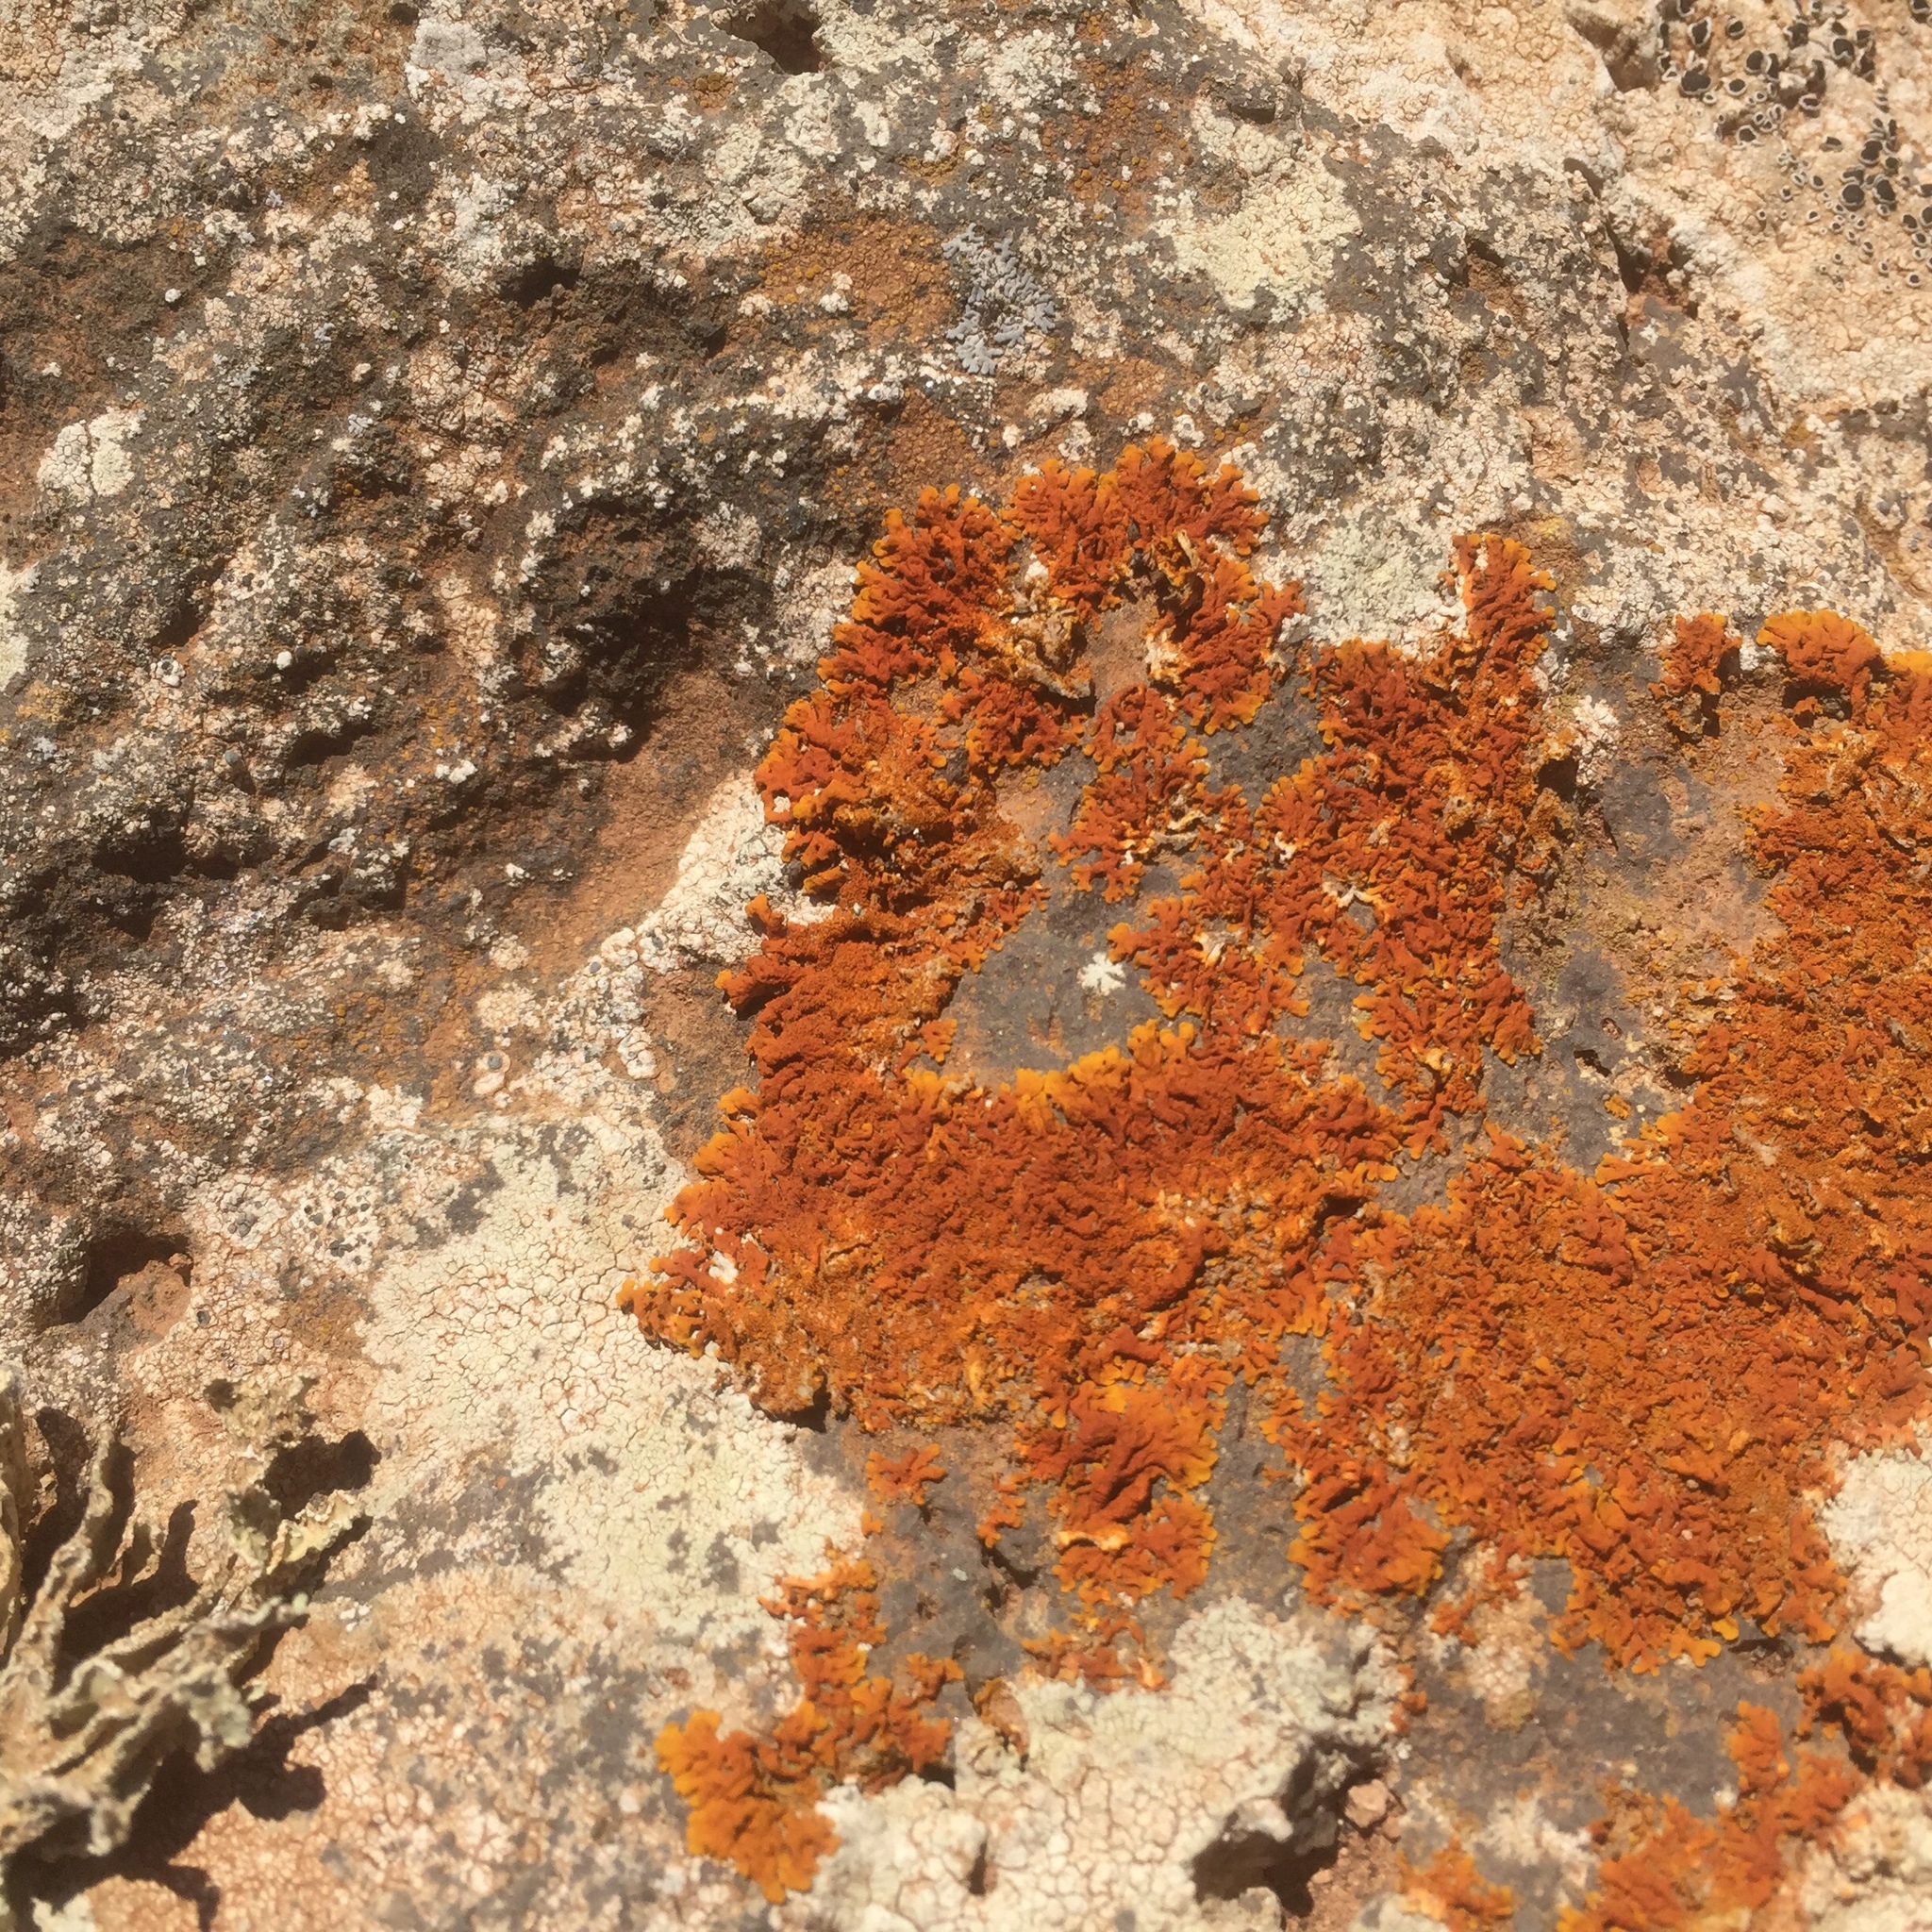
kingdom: Fungi
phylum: Ascomycota
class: Lecanoromycetes
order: Teloschistales
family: Teloschistaceae
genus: Xanthoria
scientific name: Xanthoria calcicola
